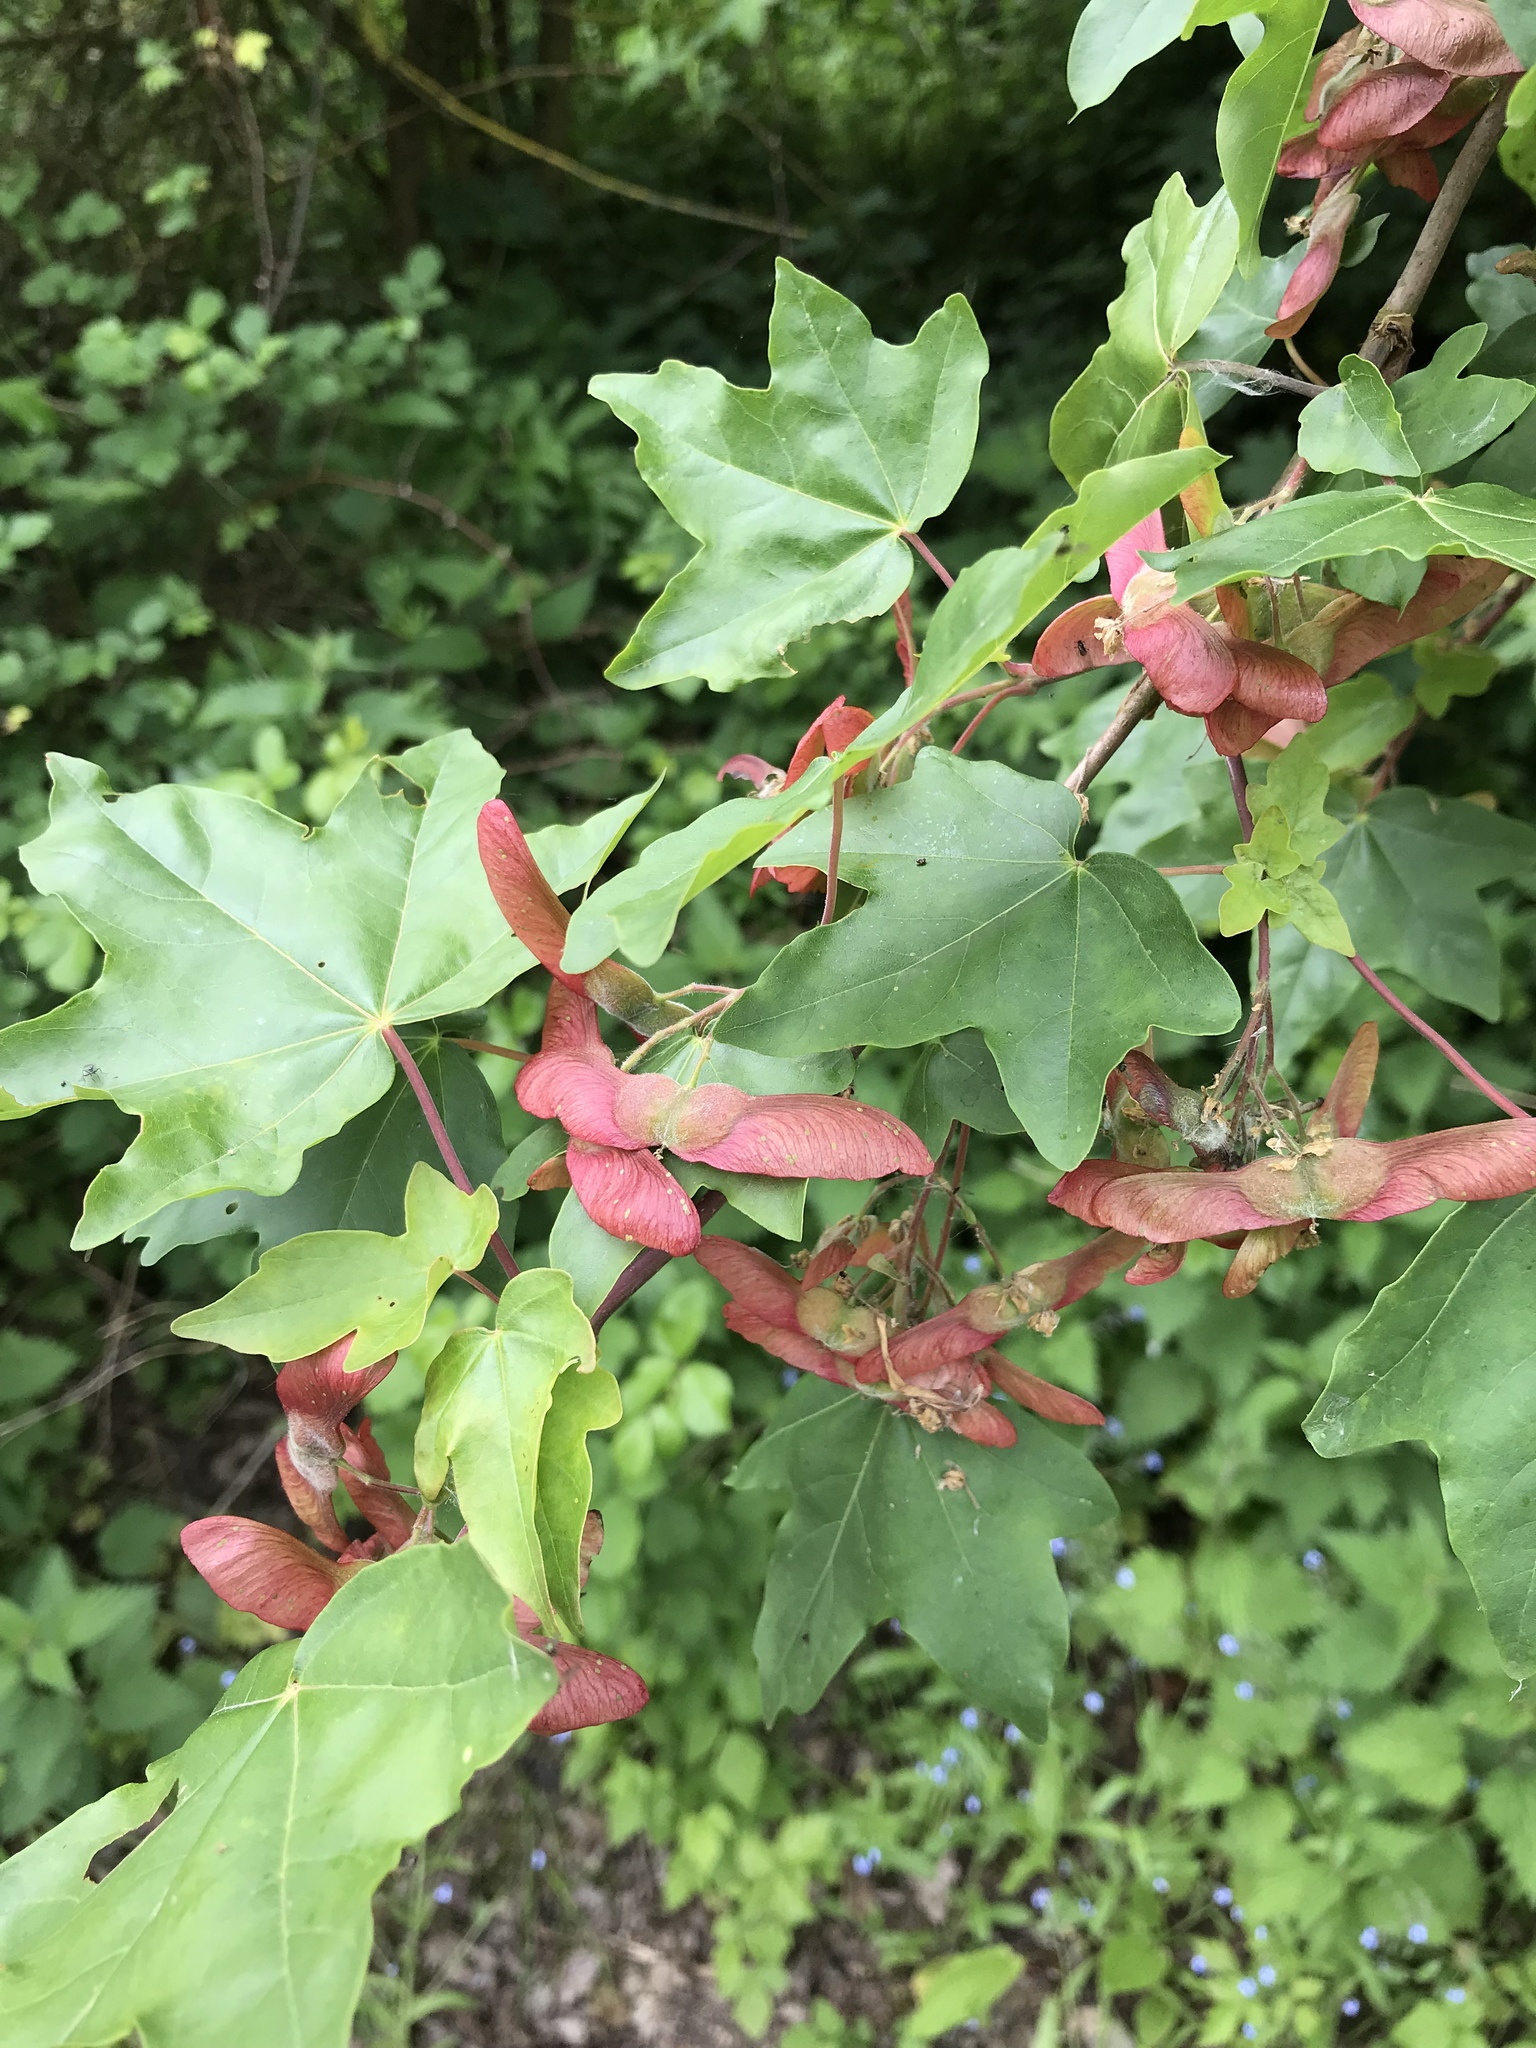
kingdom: Plantae
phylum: Tracheophyta
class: Magnoliopsida
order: Sapindales
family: Sapindaceae
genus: Acer
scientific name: Acer campestre
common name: Field maple
